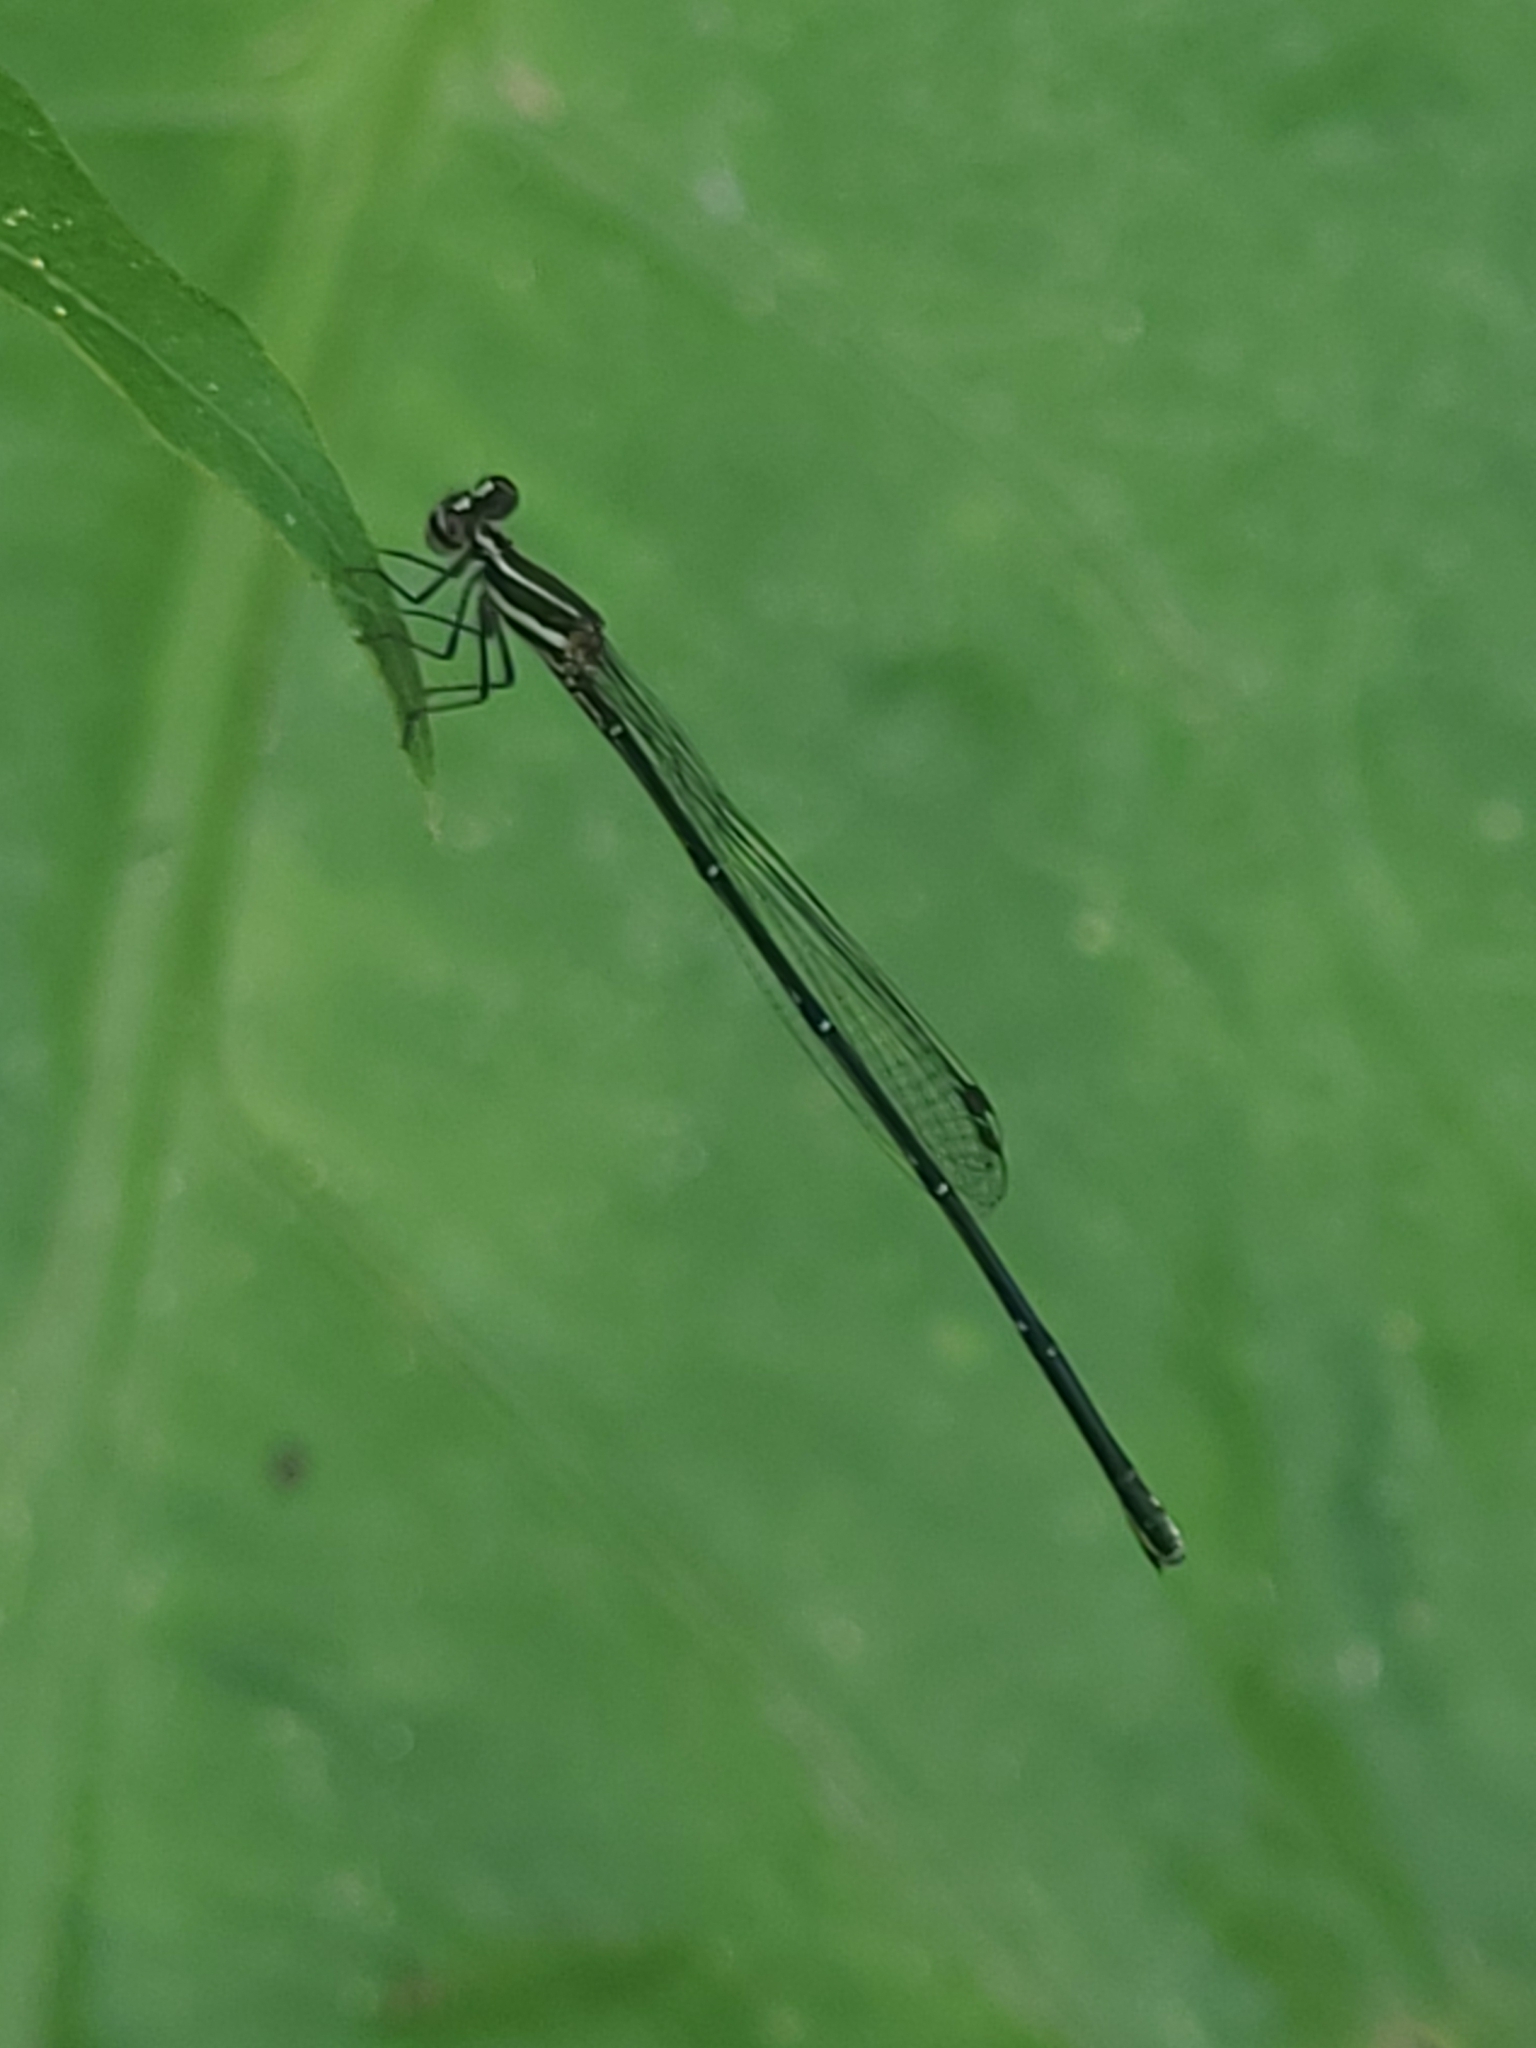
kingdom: Animalia
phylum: Arthropoda
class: Insecta
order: Odonata
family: Platycnemididae
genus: Prodasineura
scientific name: Prodasineura autumnalis
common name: Black threadtail
